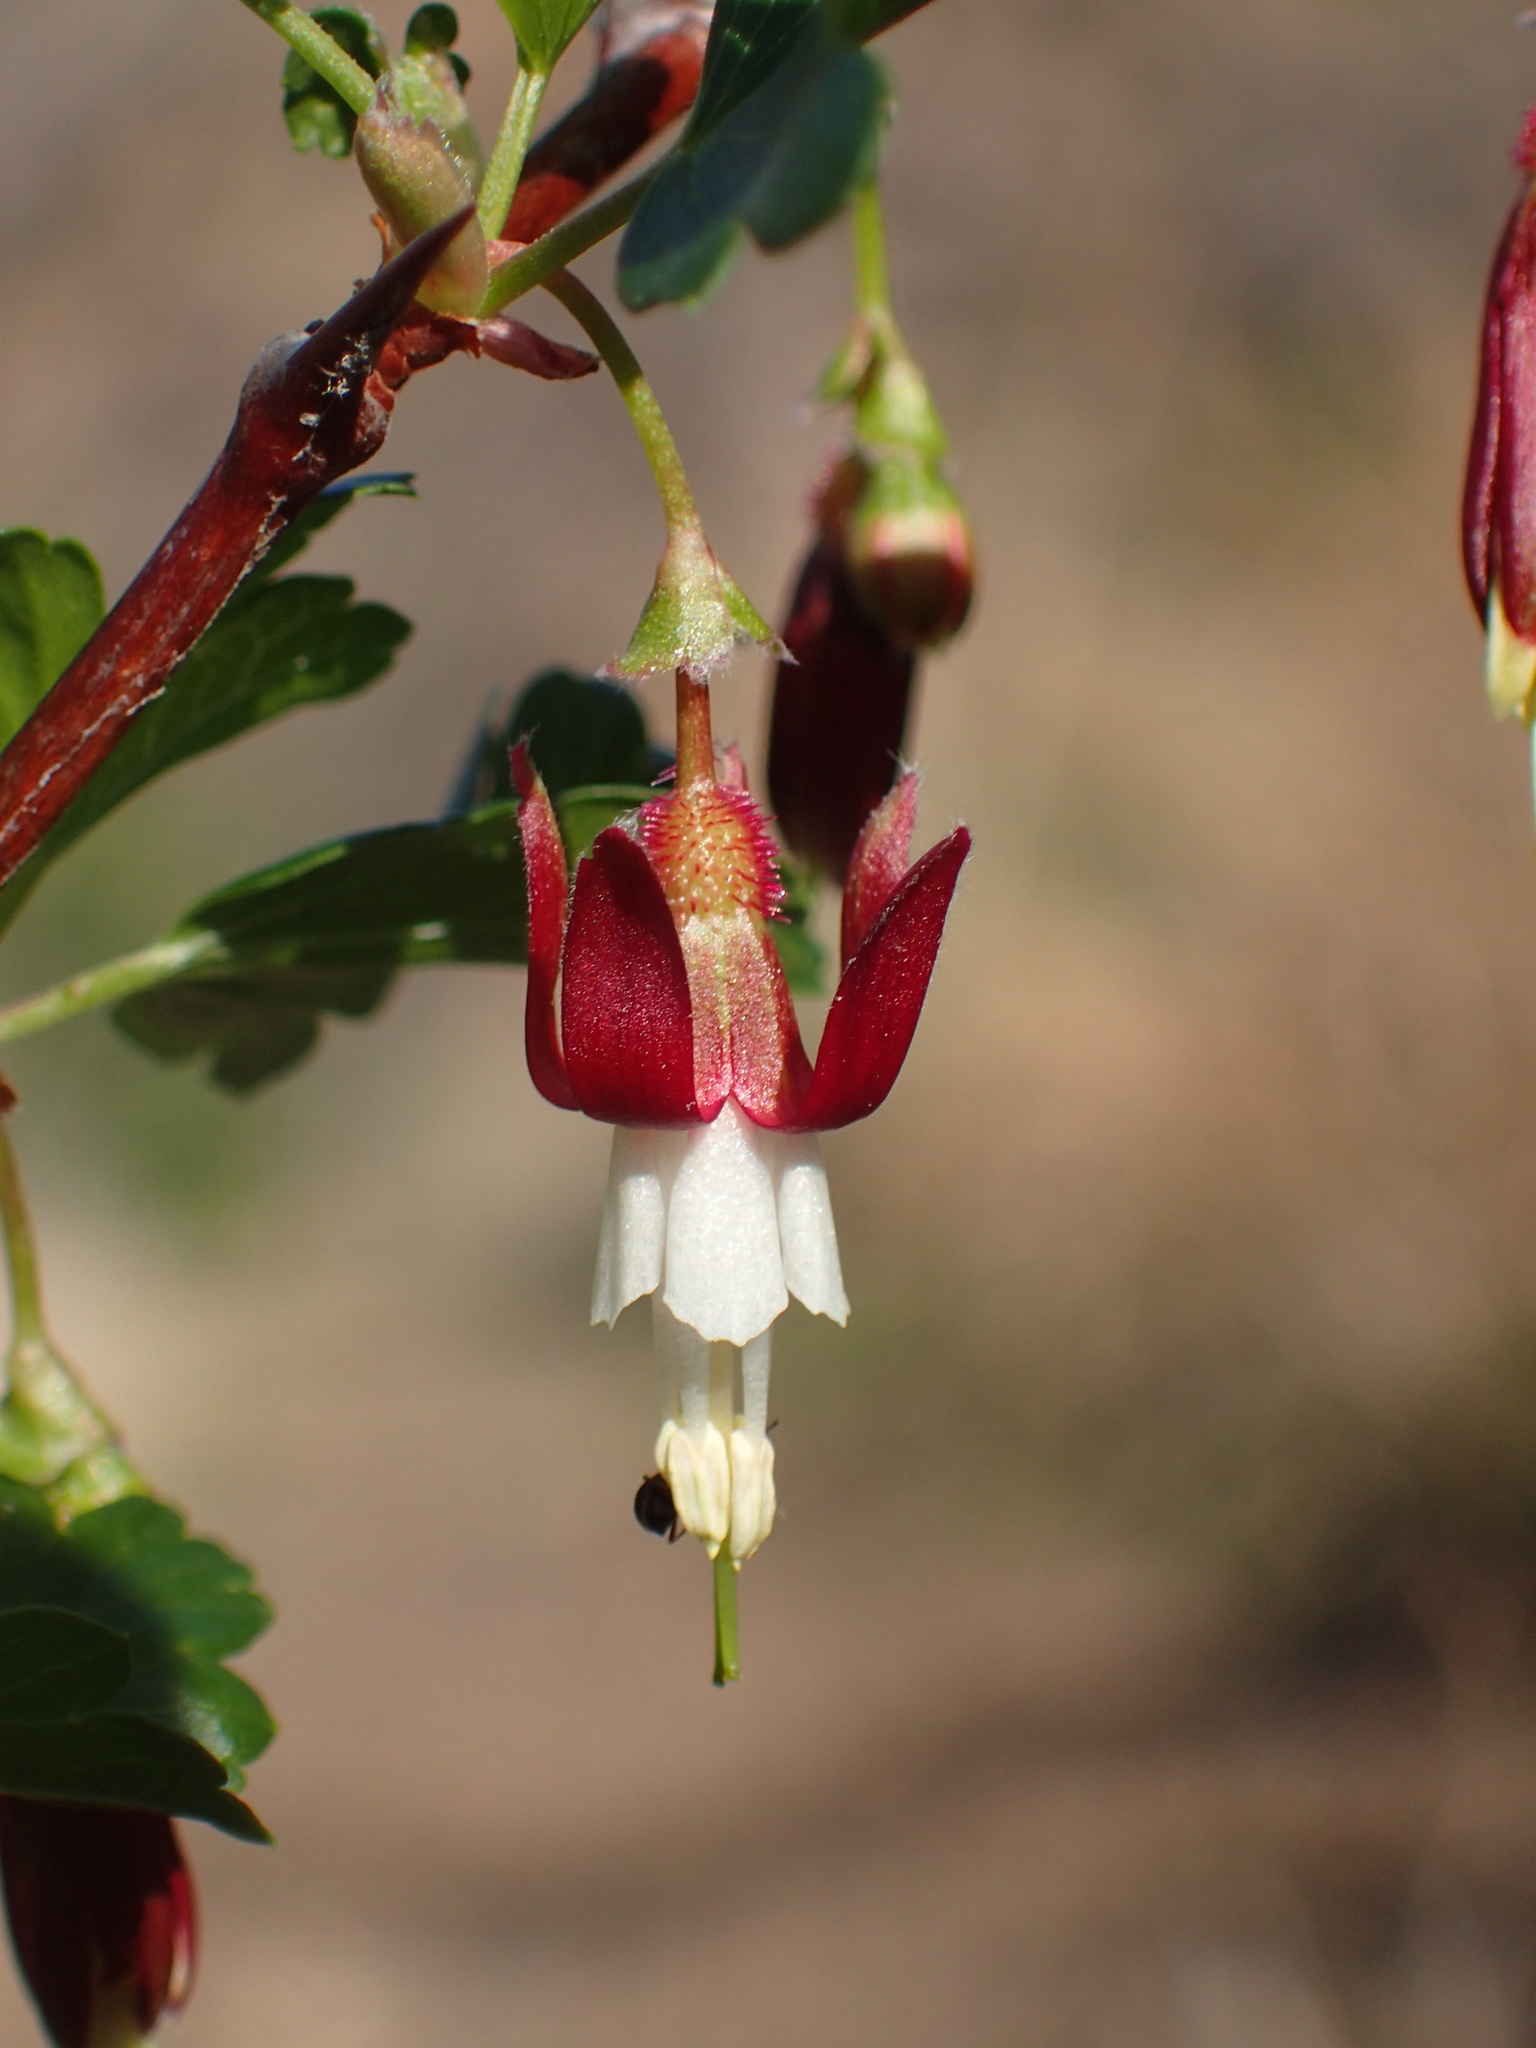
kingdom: Plantae
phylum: Tracheophyta
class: Magnoliopsida
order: Saxifragales
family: Grossulariaceae
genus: Ribes
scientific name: Ribes californicum
